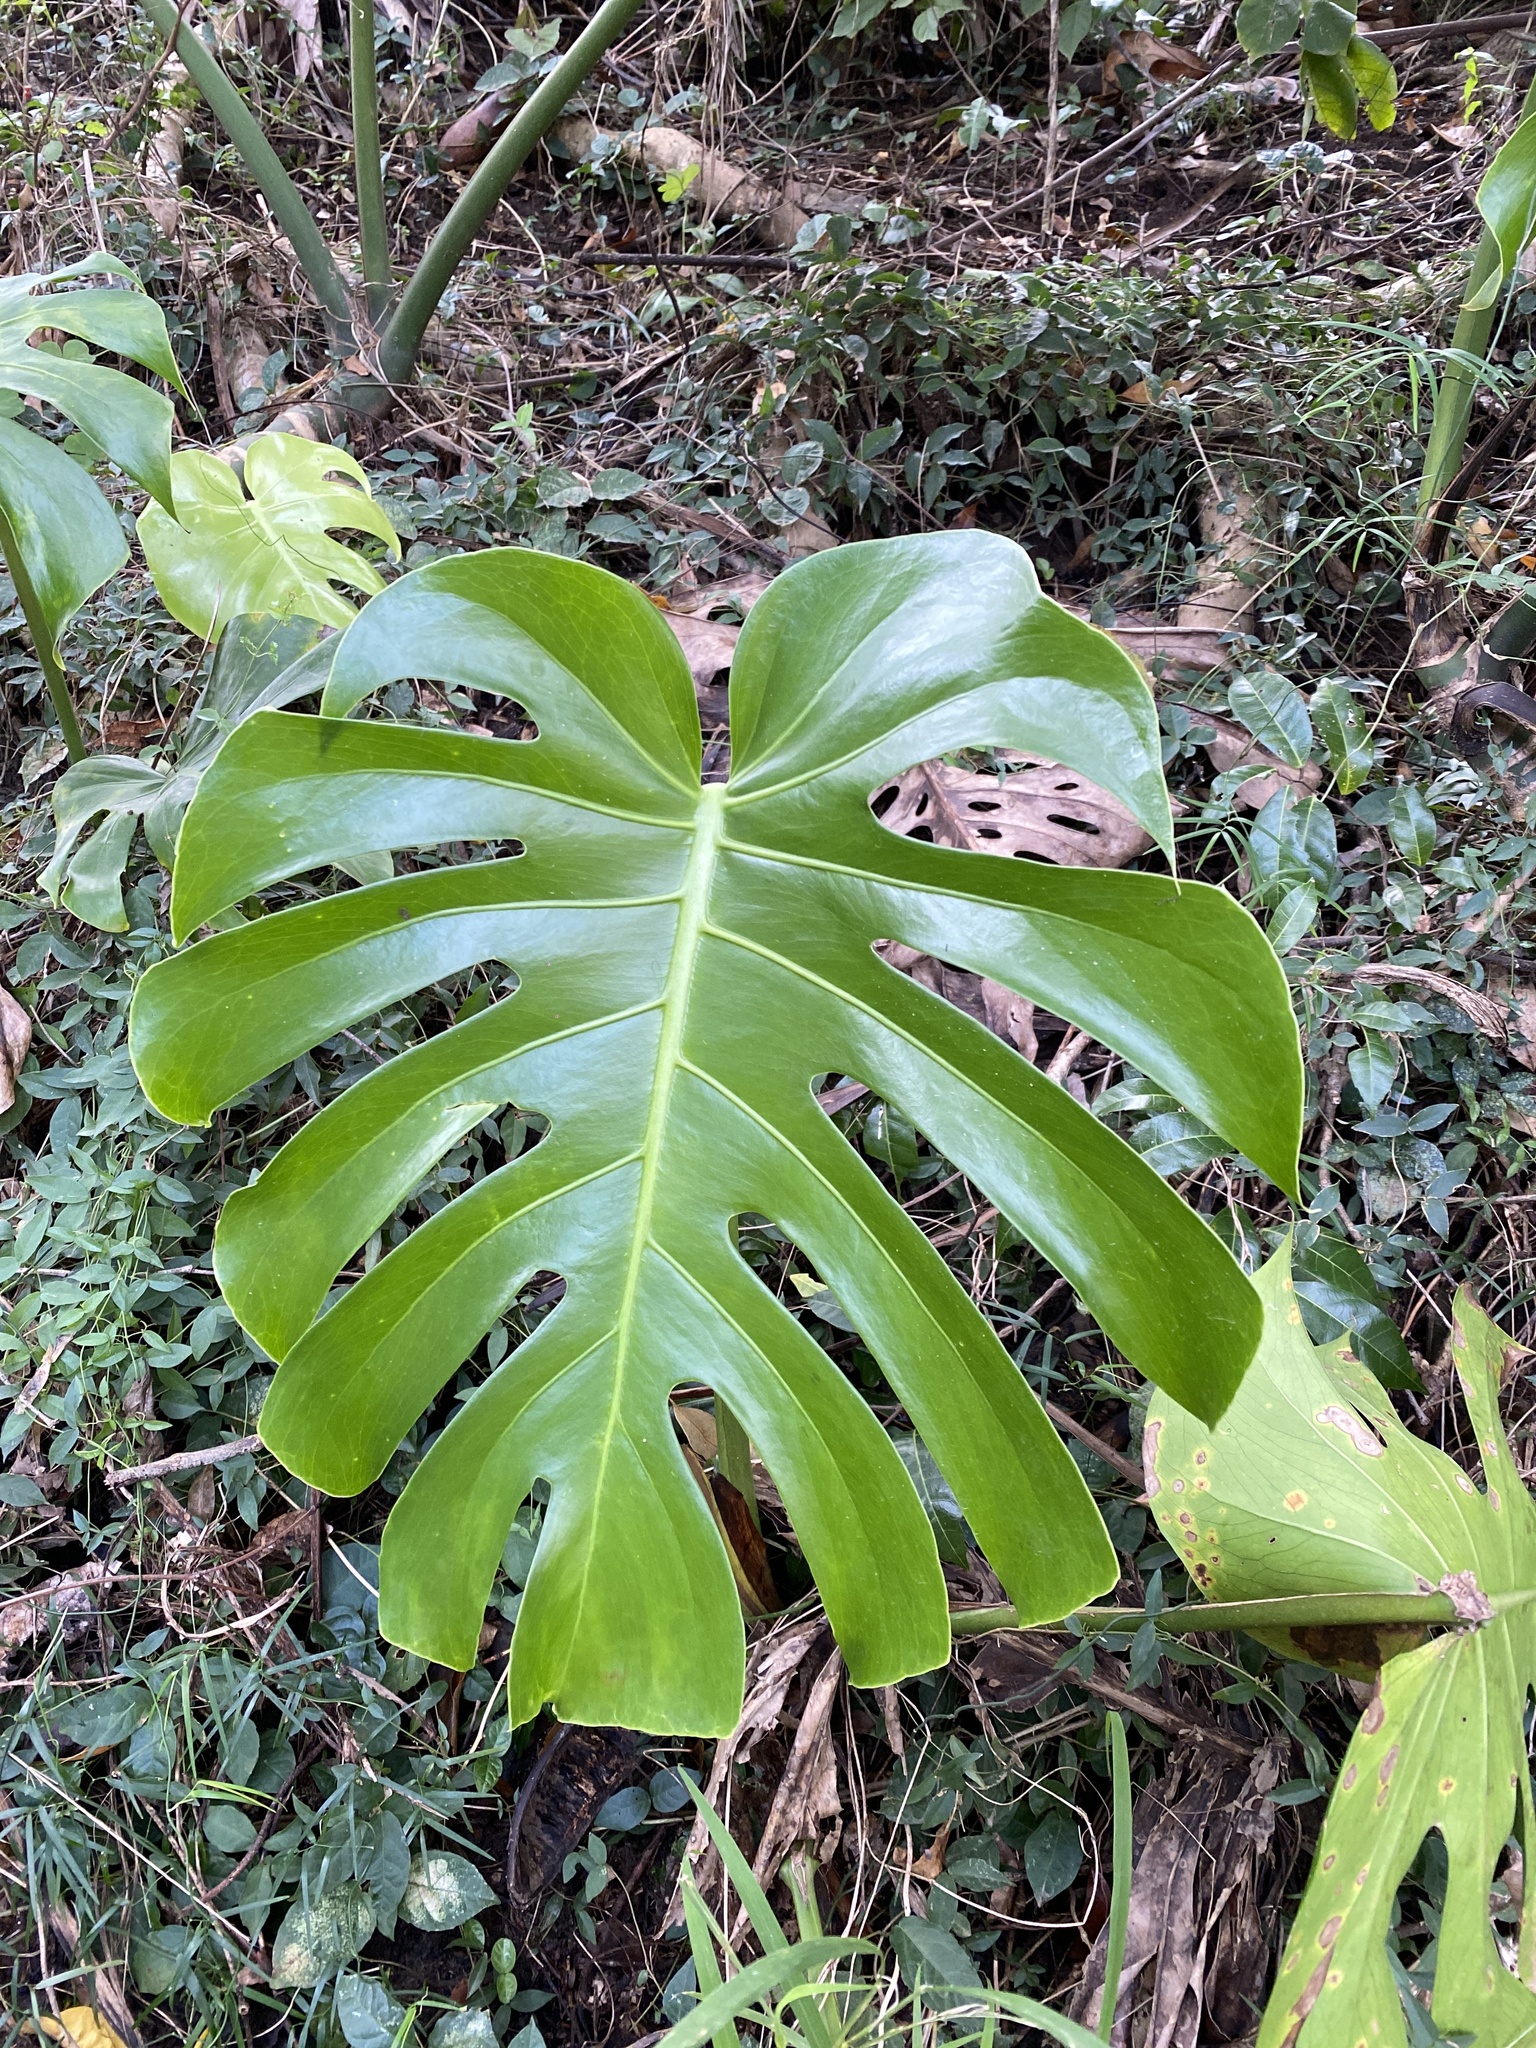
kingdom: Plantae
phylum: Tracheophyta
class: Liliopsida
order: Alismatales
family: Araceae
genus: Monstera
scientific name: Monstera deliciosa
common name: Cut-leaf-philodendron
